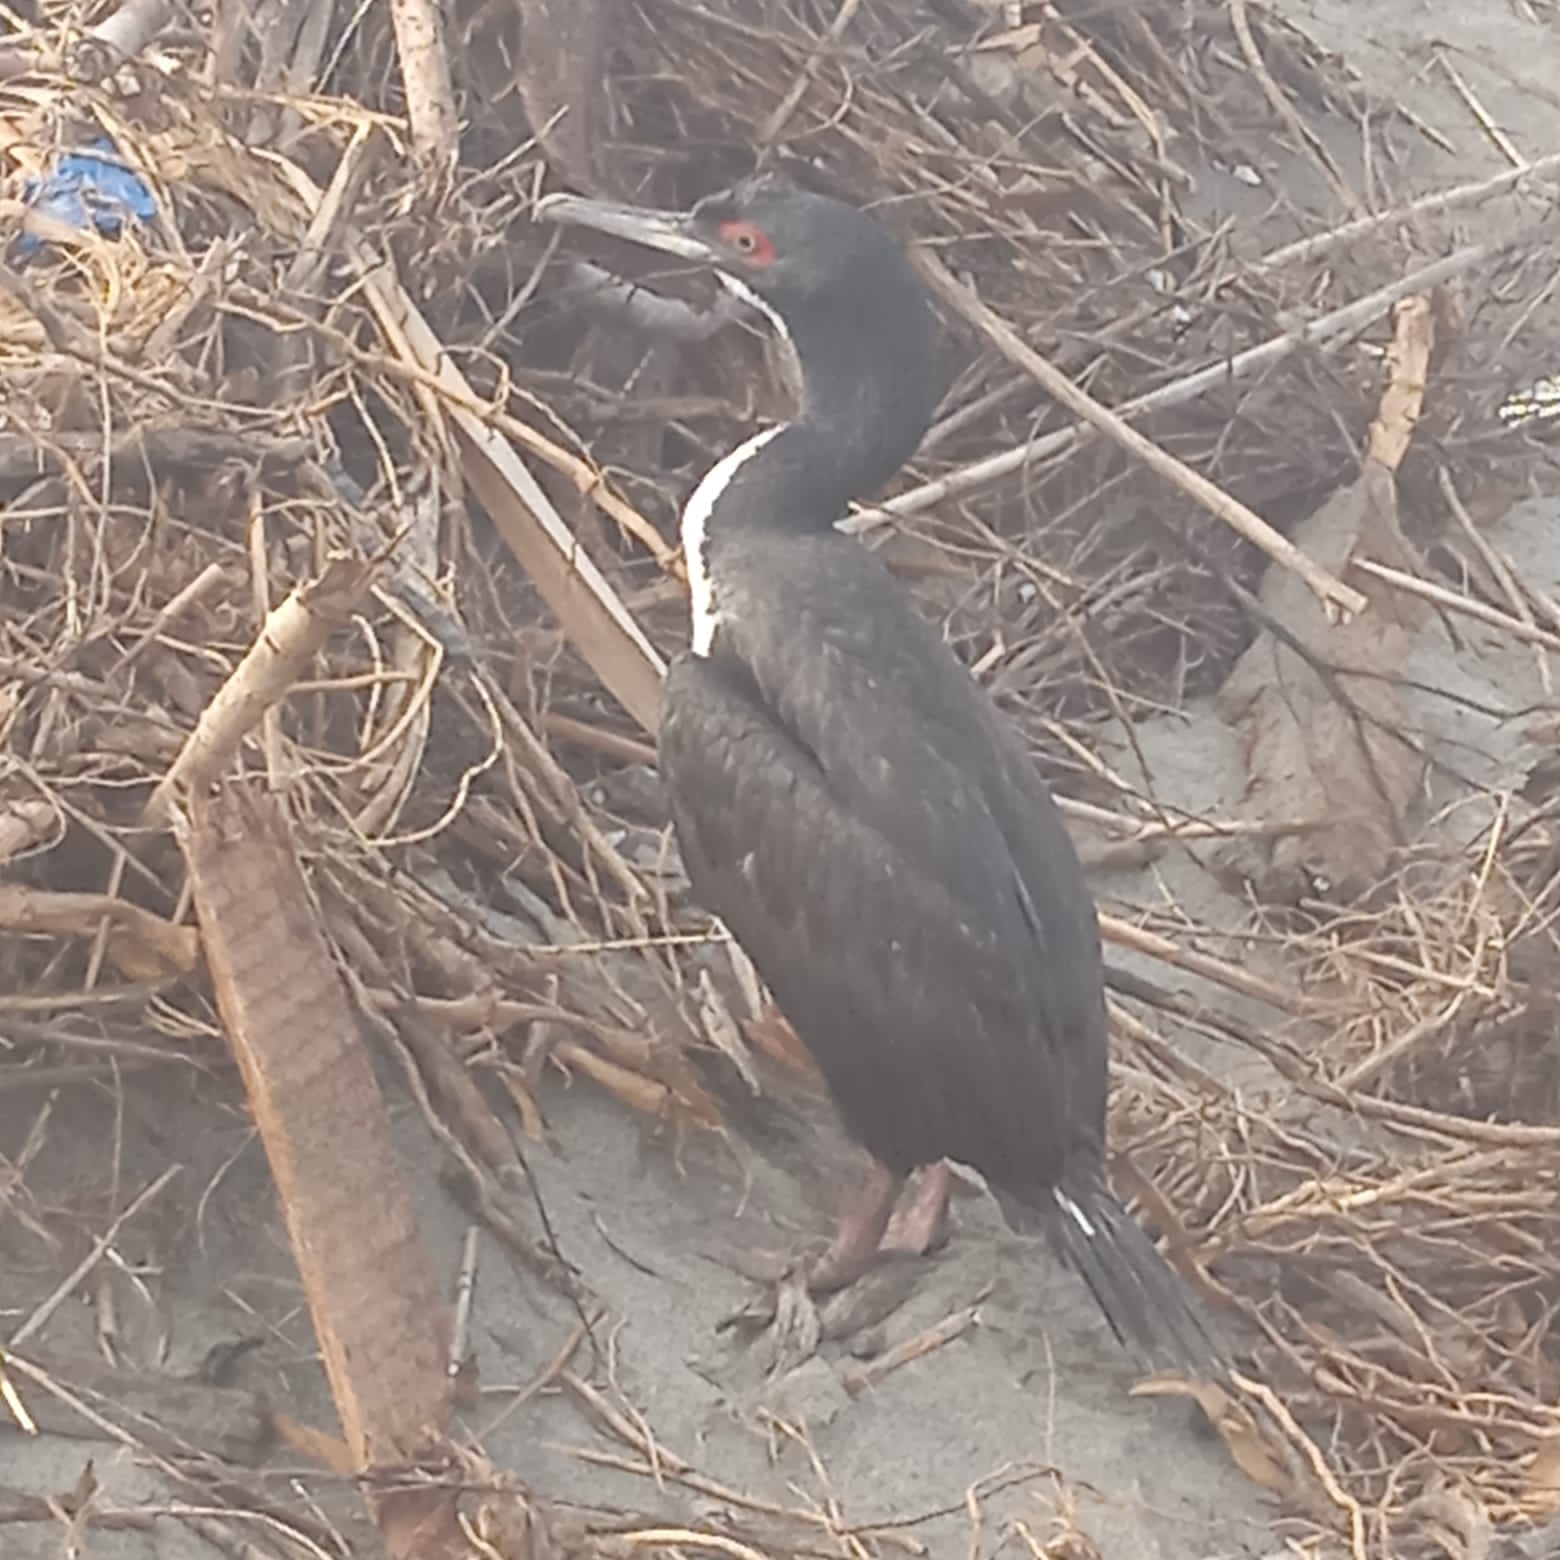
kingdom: Animalia
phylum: Chordata
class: Aves
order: Suliformes
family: Phalacrocoracidae
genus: Leucocarbo
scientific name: Leucocarbo bougainvillii
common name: Guanay cormorant
